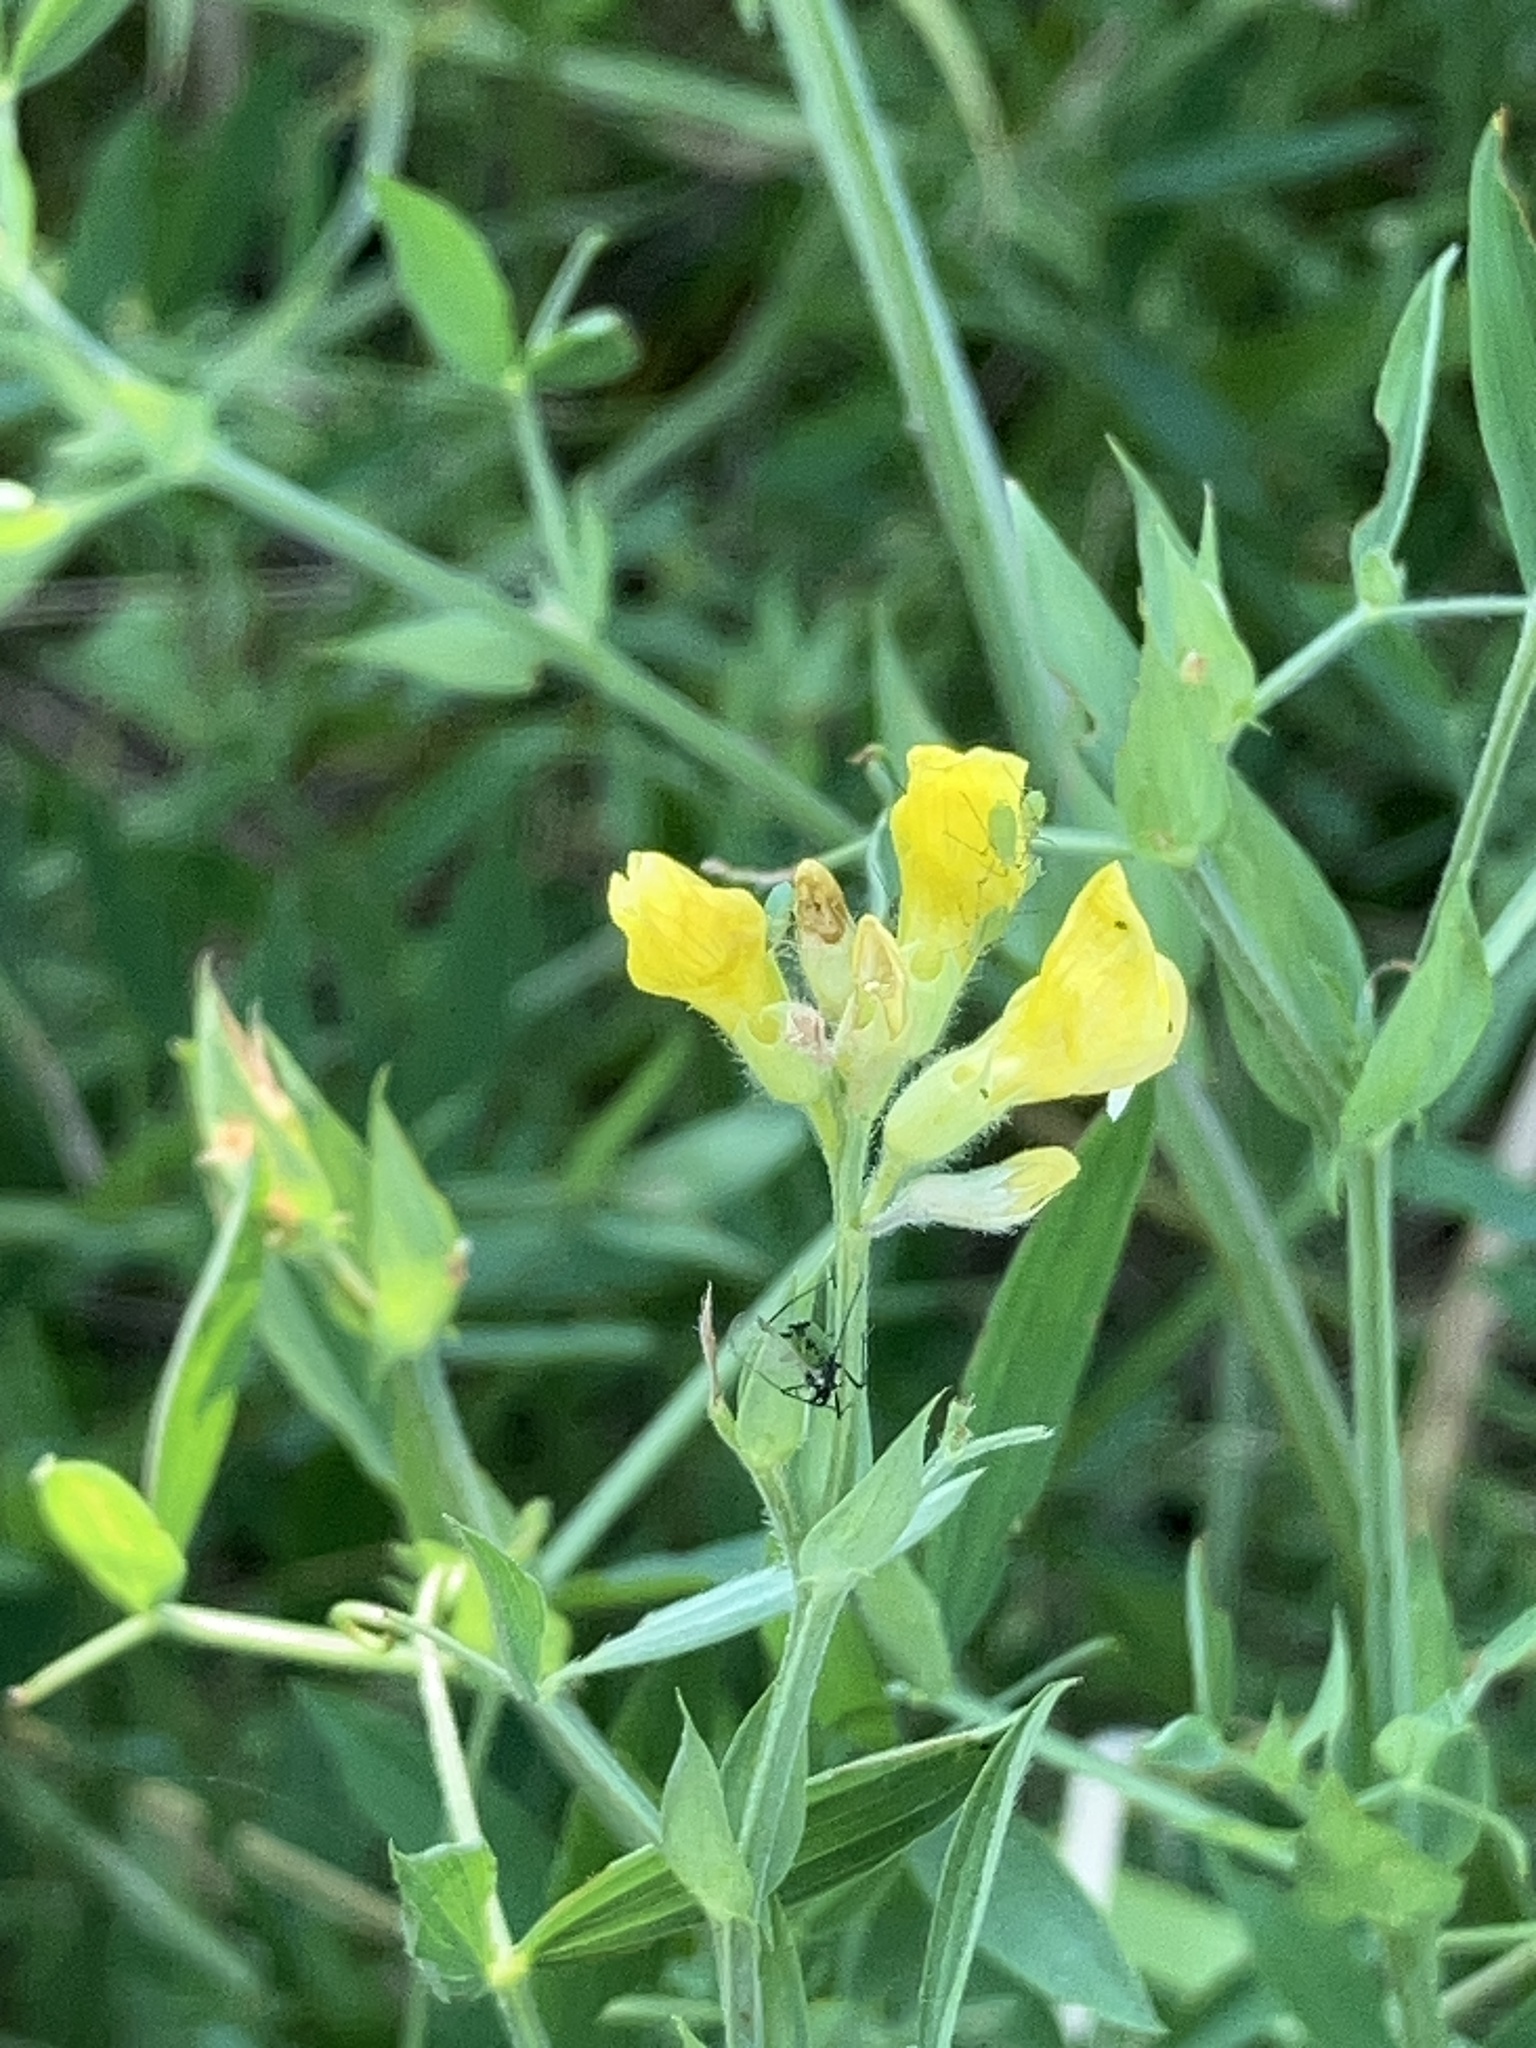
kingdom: Plantae
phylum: Tracheophyta
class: Magnoliopsida
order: Fabales
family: Fabaceae
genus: Lathyrus
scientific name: Lathyrus pratensis
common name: Meadow vetchling
